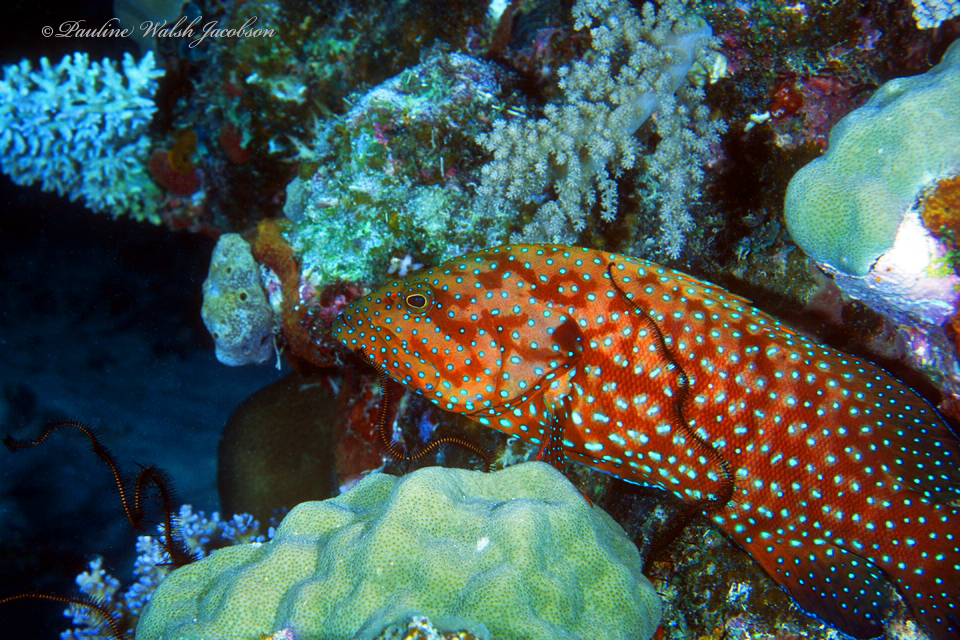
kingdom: Animalia
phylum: Chordata
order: Perciformes
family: Serranidae
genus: Cephalopholis
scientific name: Cephalopholis cyanostigma
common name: Bluespotted hind
